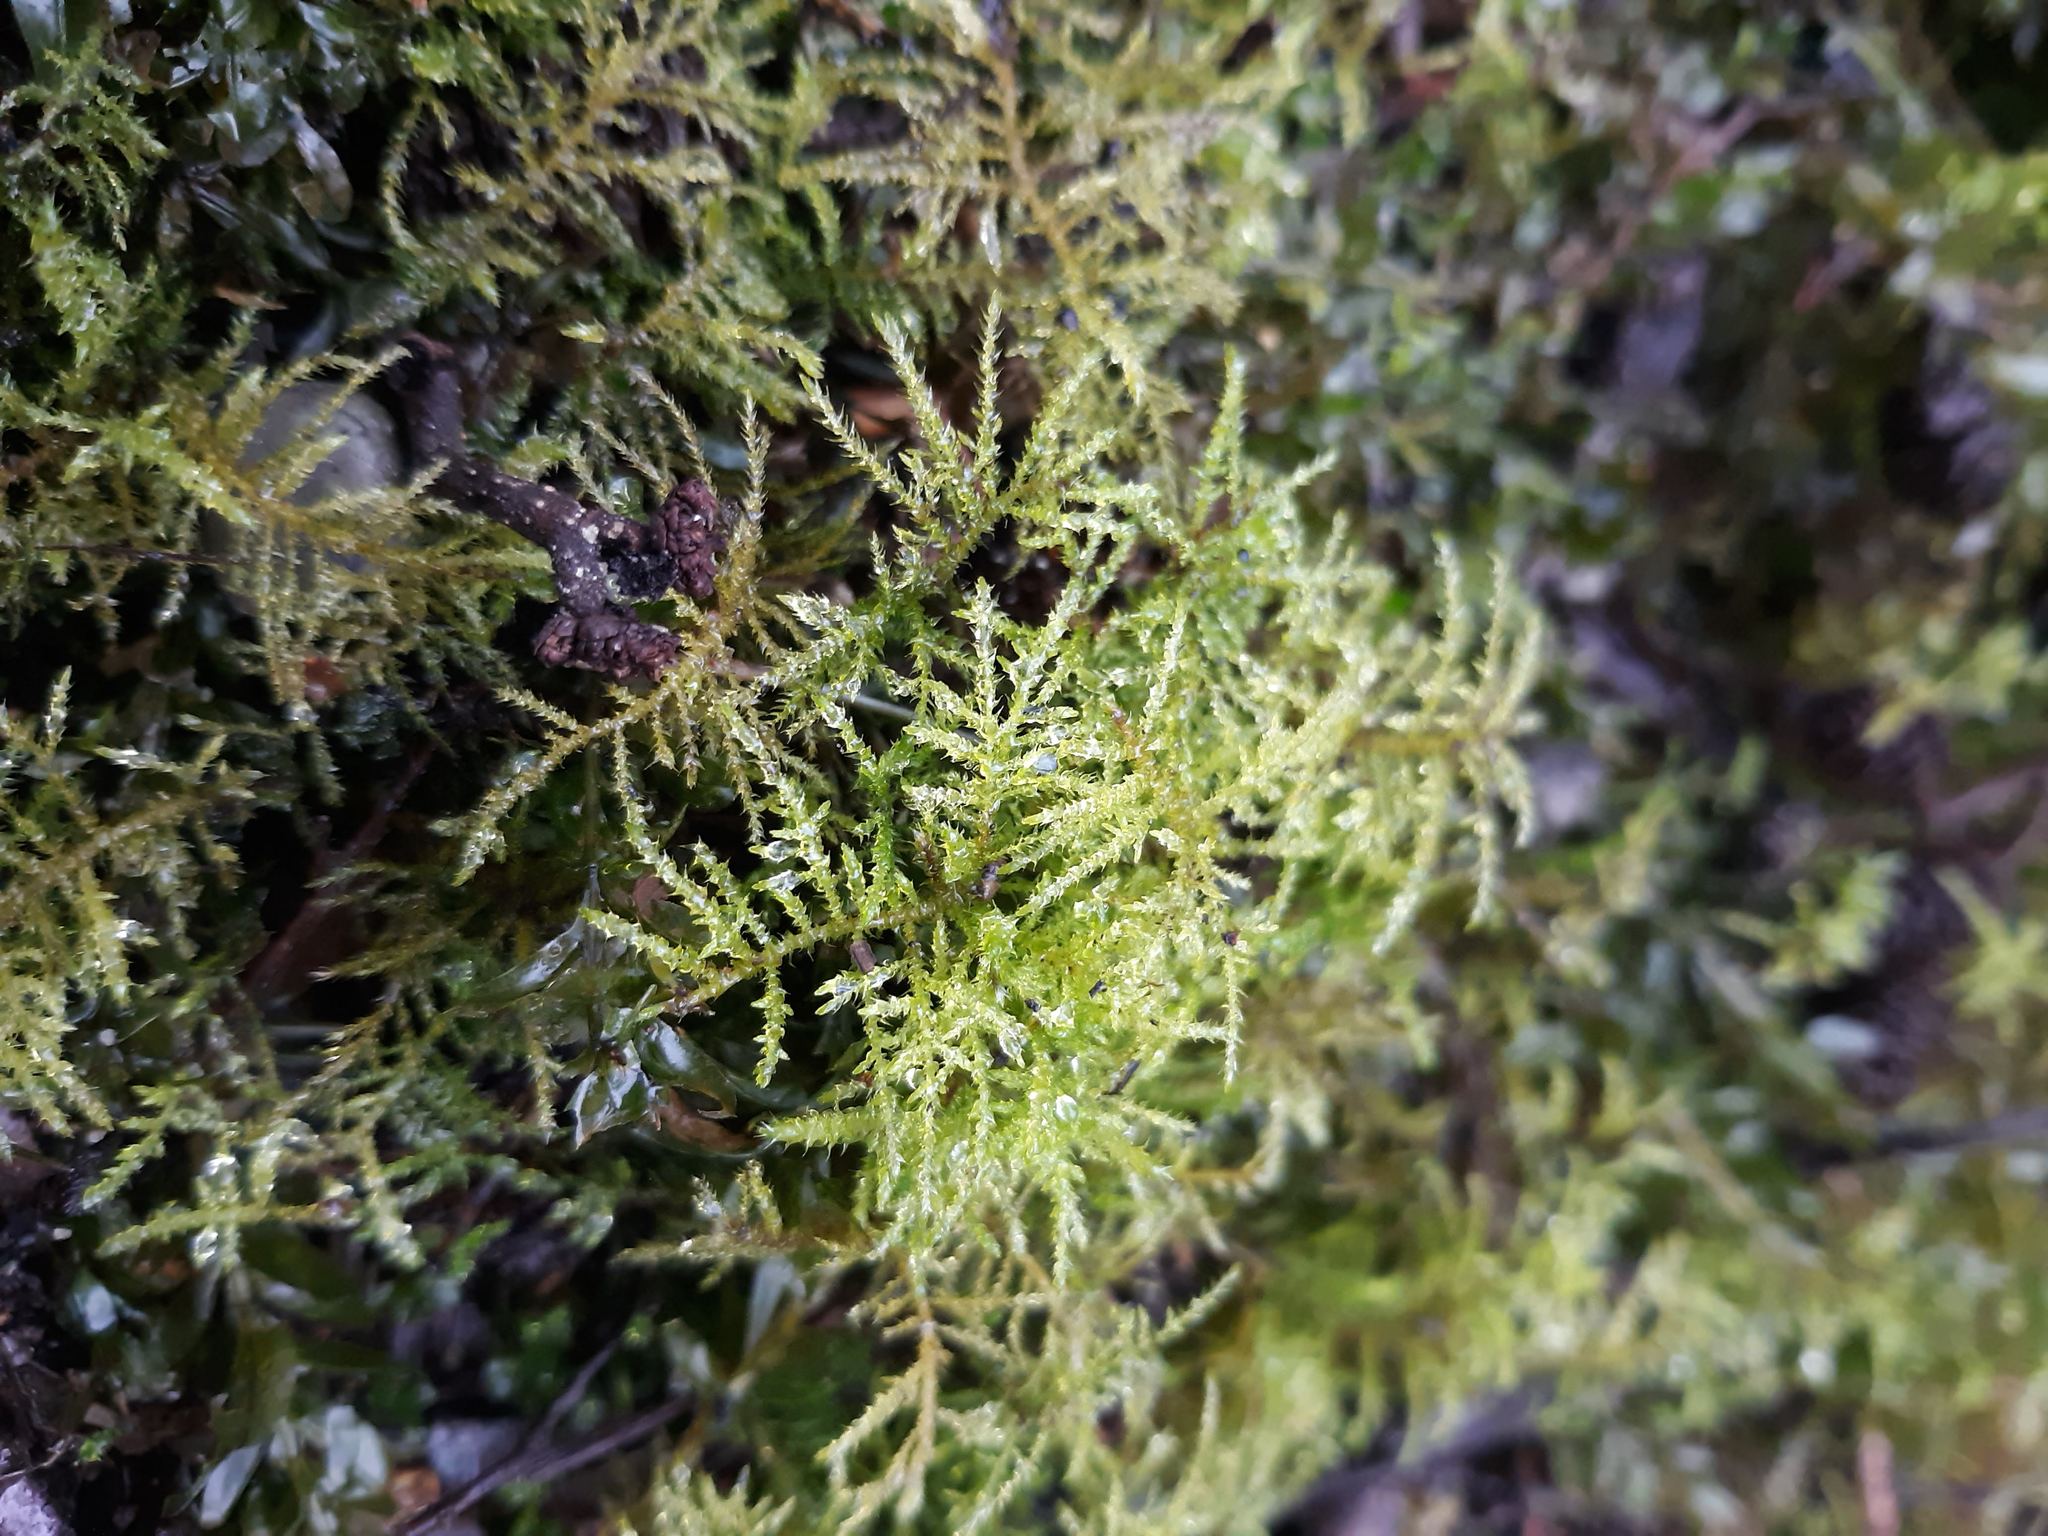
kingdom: Plantae
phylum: Bryophyta
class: Bryopsida
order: Hypnales
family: Brachytheciaceae
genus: Kindbergia
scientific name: Kindbergia praelonga
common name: Slender beaked moss
